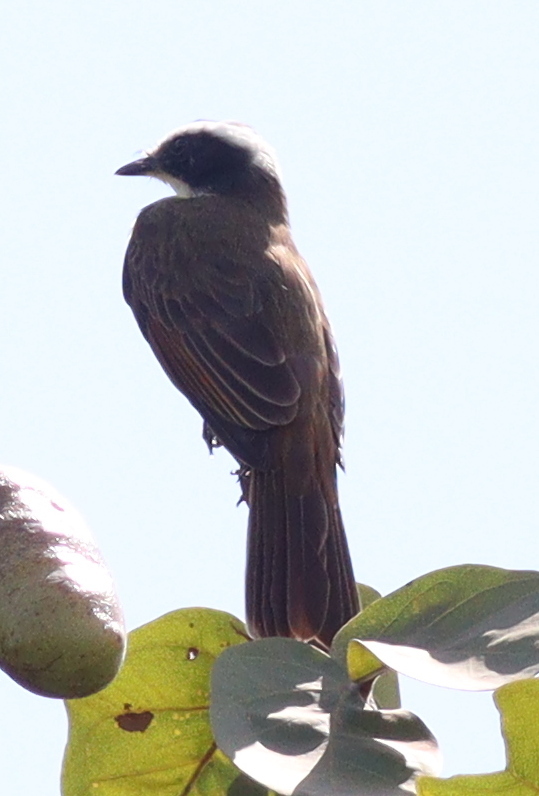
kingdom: Animalia
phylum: Chordata
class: Aves
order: Passeriformes
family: Tyrannidae
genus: Myiozetetes
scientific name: Myiozetetes cayanensis
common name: Rusty-margined flycatcher
